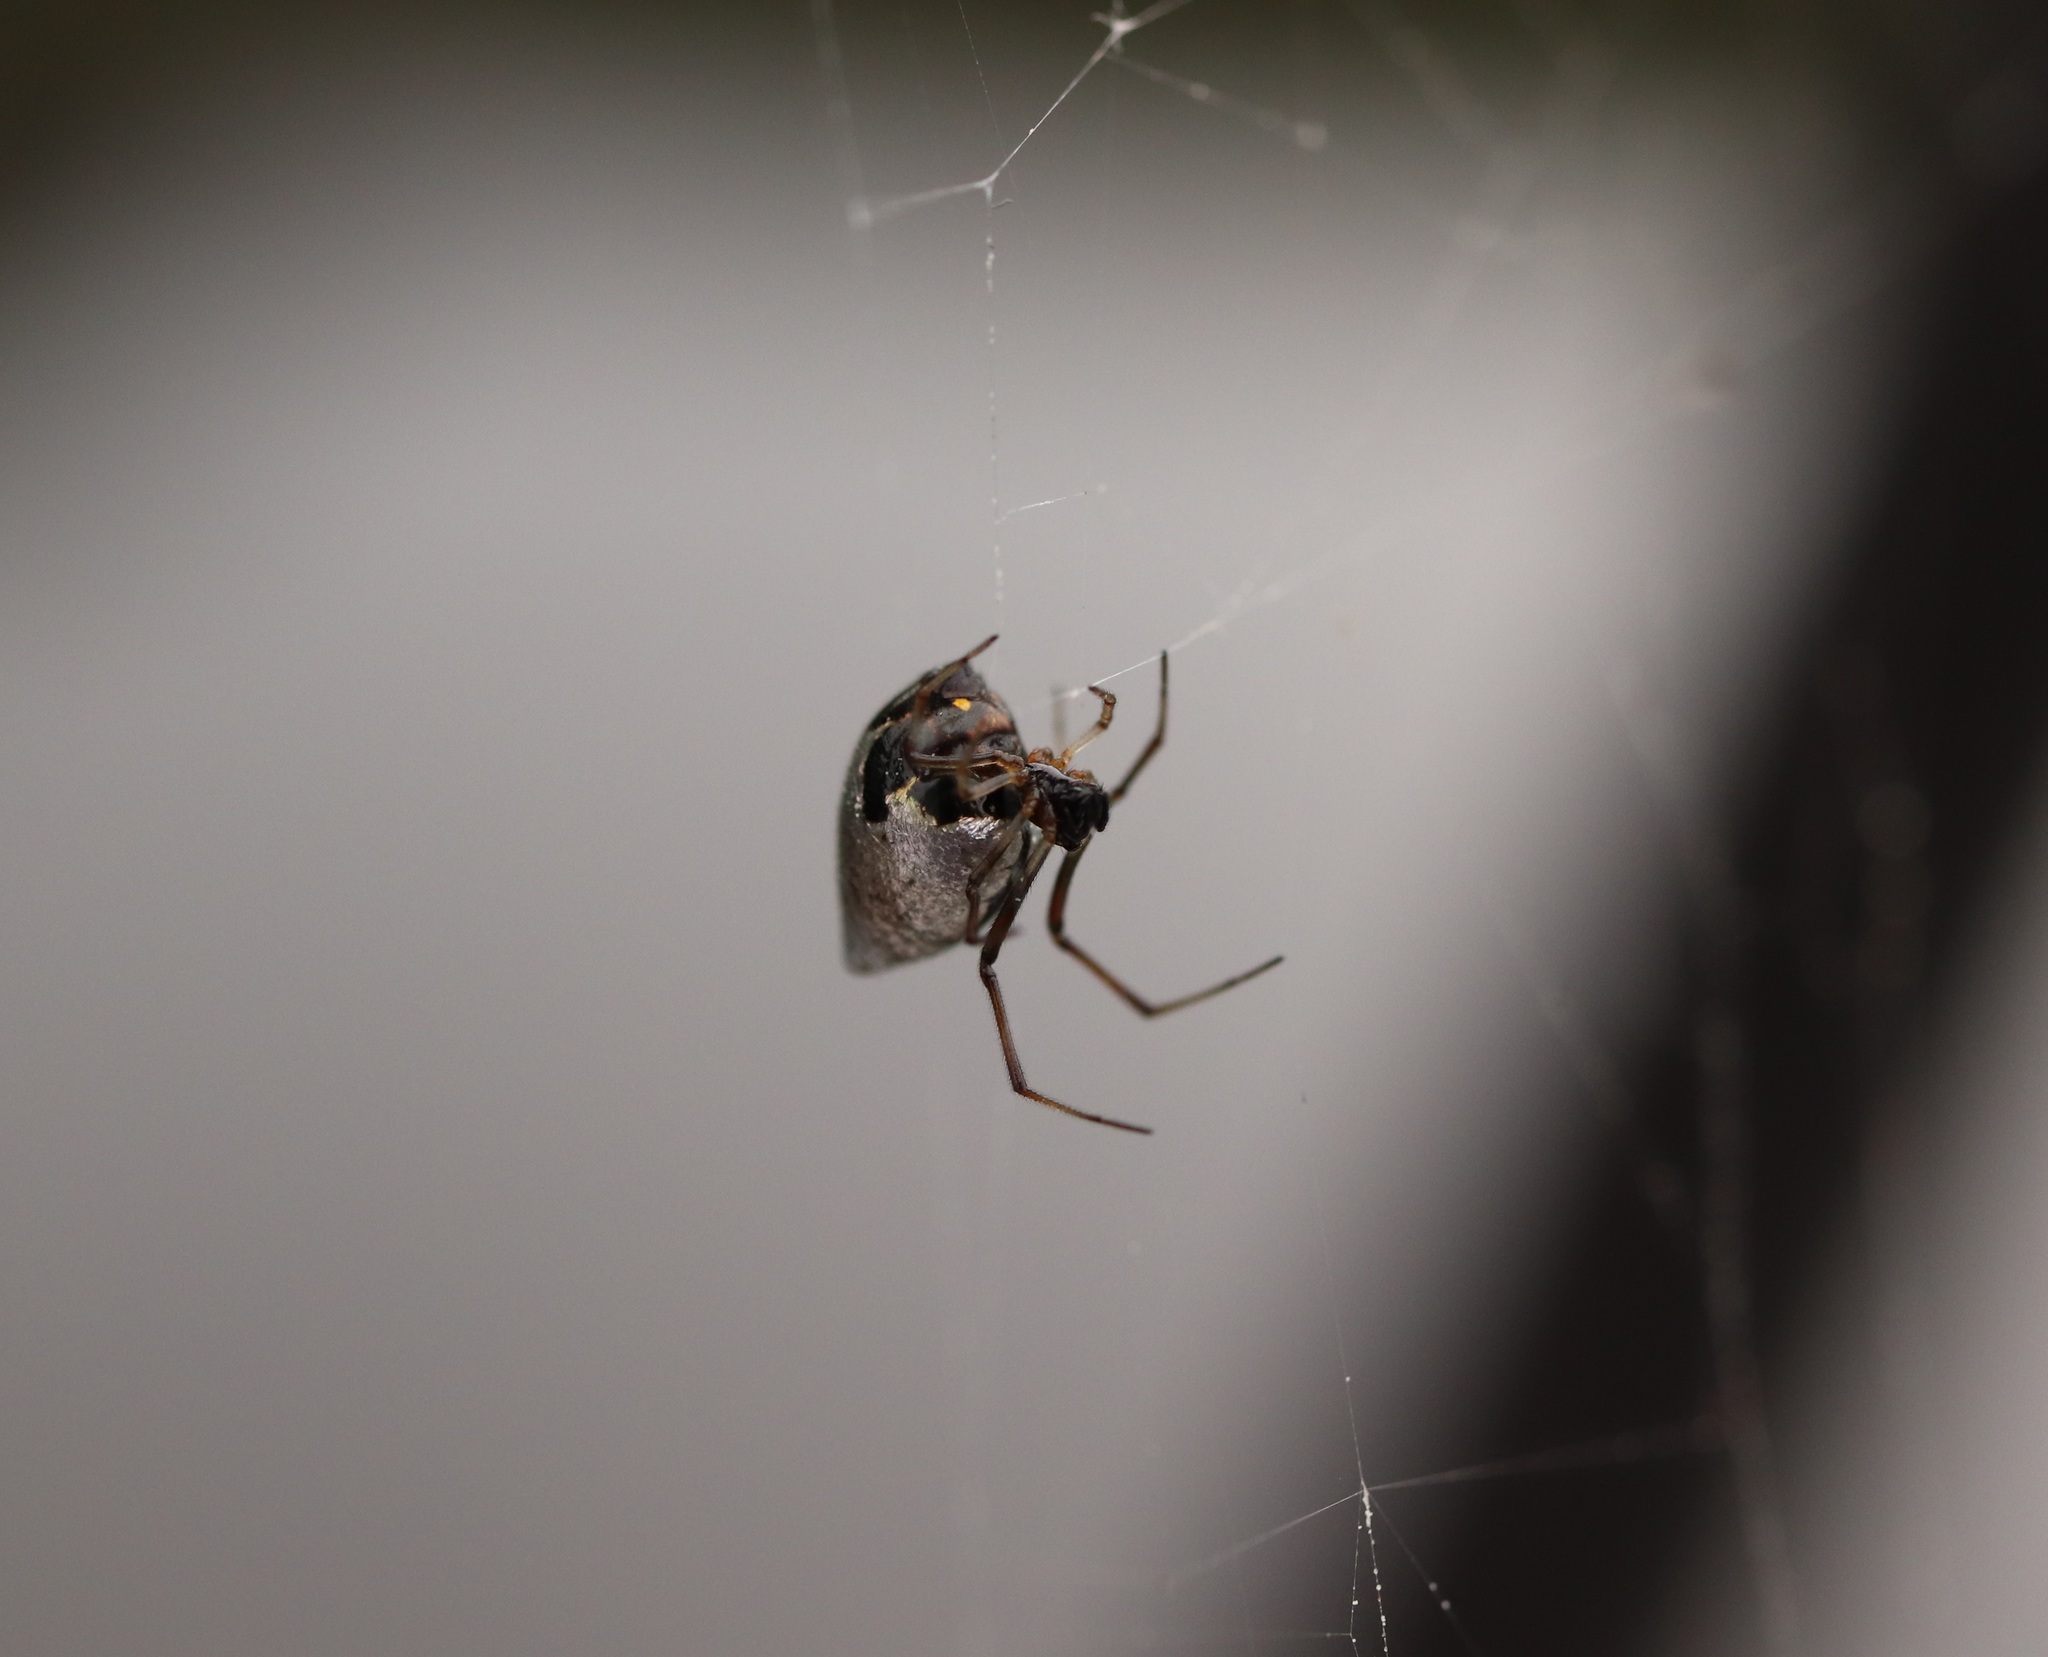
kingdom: Animalia
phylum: Arthropoda
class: Arachnida
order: Araneae
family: Theridiidae
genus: Argyrodes
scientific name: Argyrodes bonadea
